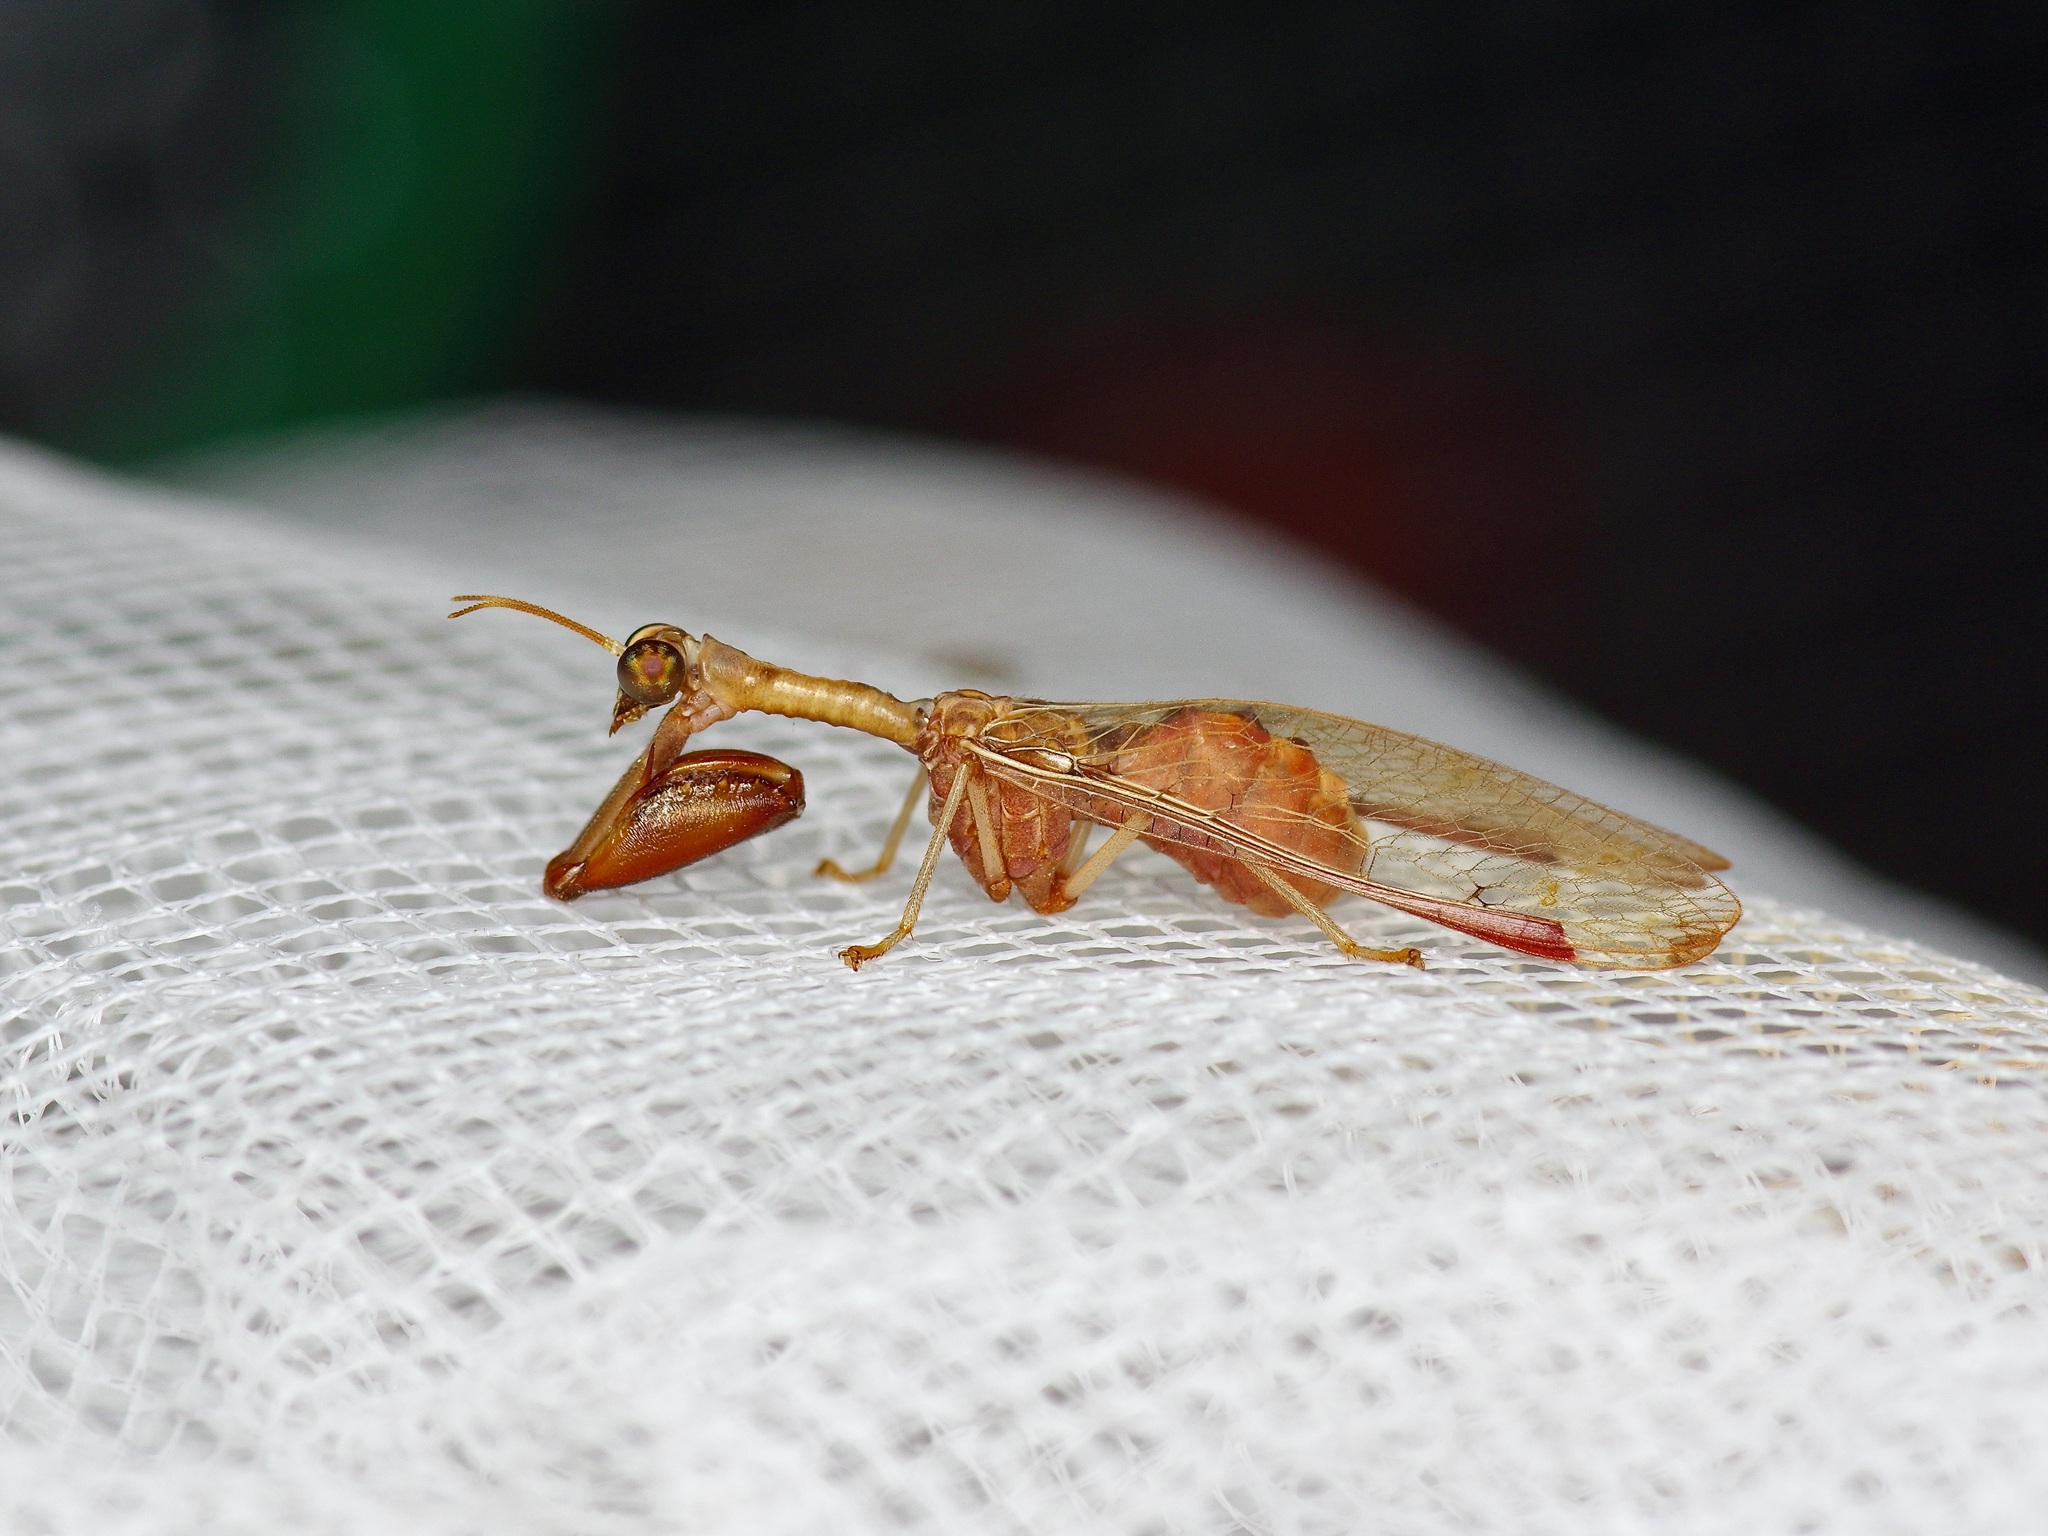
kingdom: Animalia
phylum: Arthropoda
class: Insecta
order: Neuroptera
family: Mantispidae
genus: Dicromantispa
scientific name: Dicromantispa interrupta
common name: Four-spotted mantidfly
